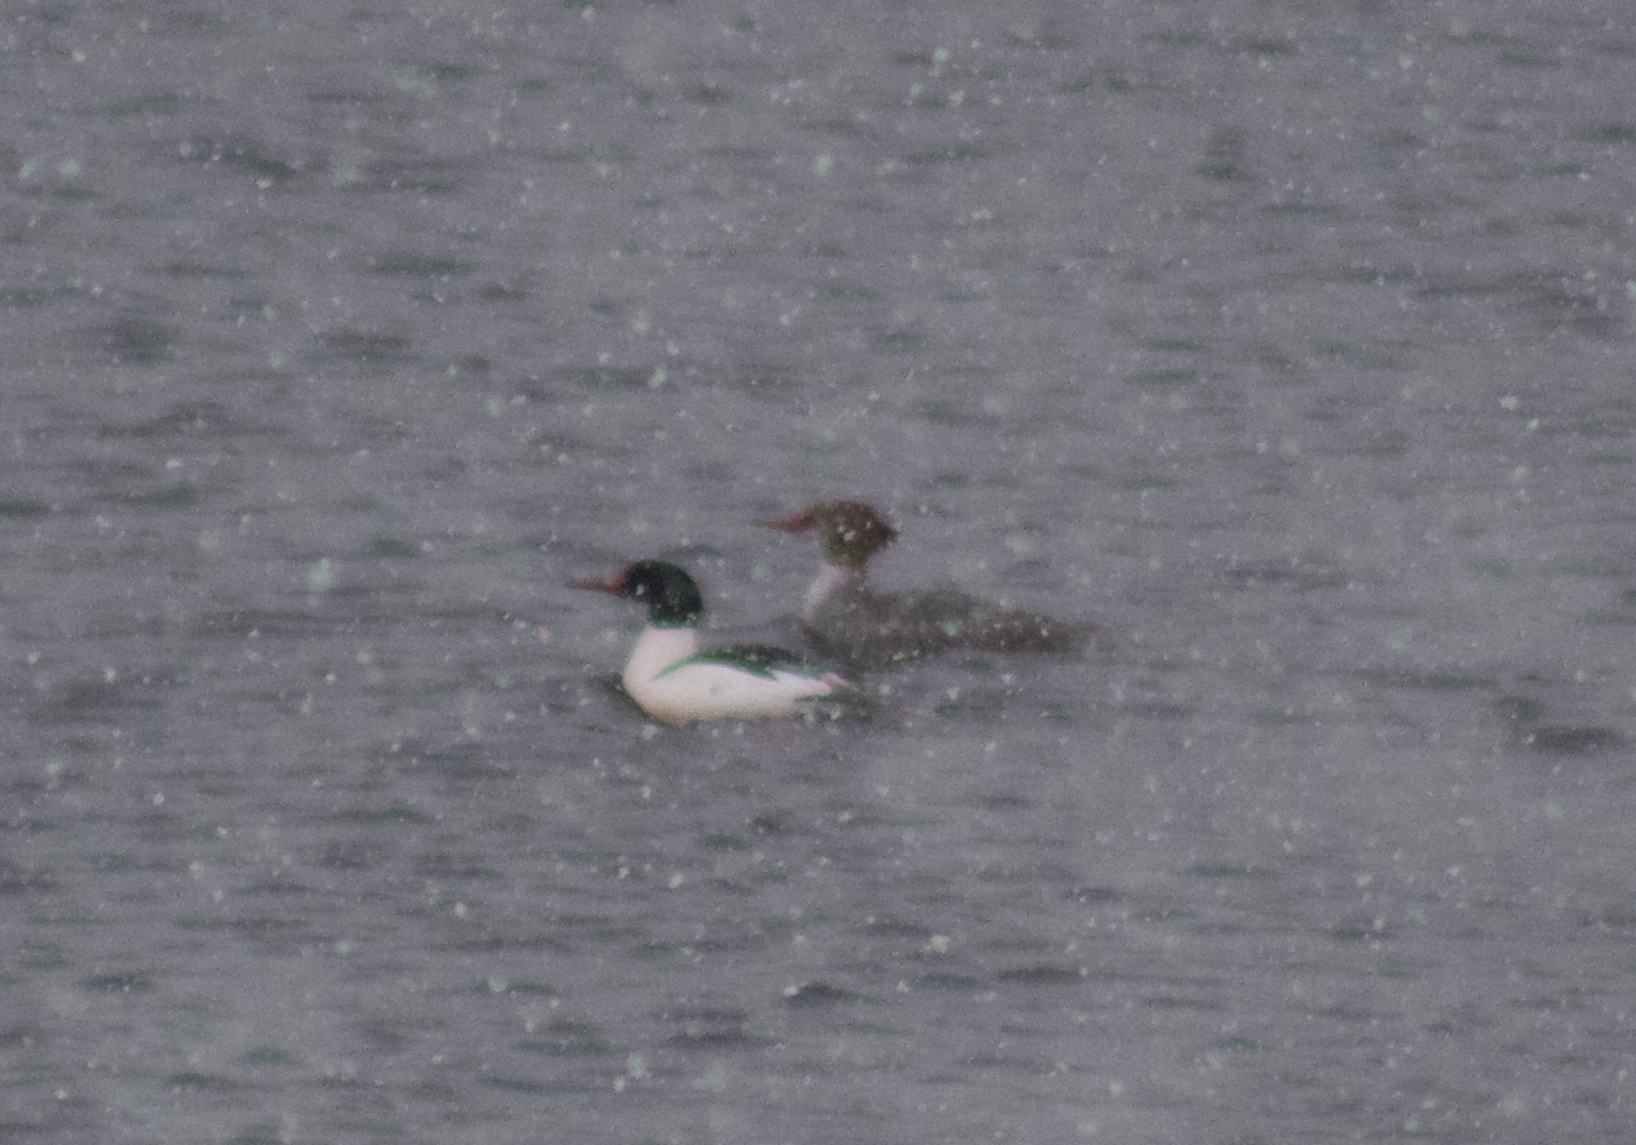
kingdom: Animalia
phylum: Chordata
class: Aves
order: Anseriformes
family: Anatidae
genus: Mergus
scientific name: Mergus merganser
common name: Common merganser
